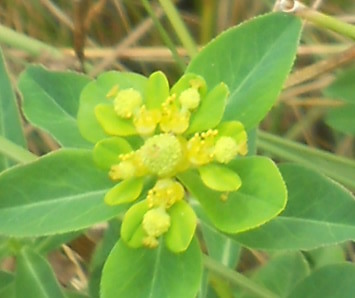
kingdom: Plantae
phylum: Tracheophyta
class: Magnoliopsida
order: Malpighiales
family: Euphorbiaceae
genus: Euphorbia
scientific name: Euphorbia hyberna
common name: Irish spurge
